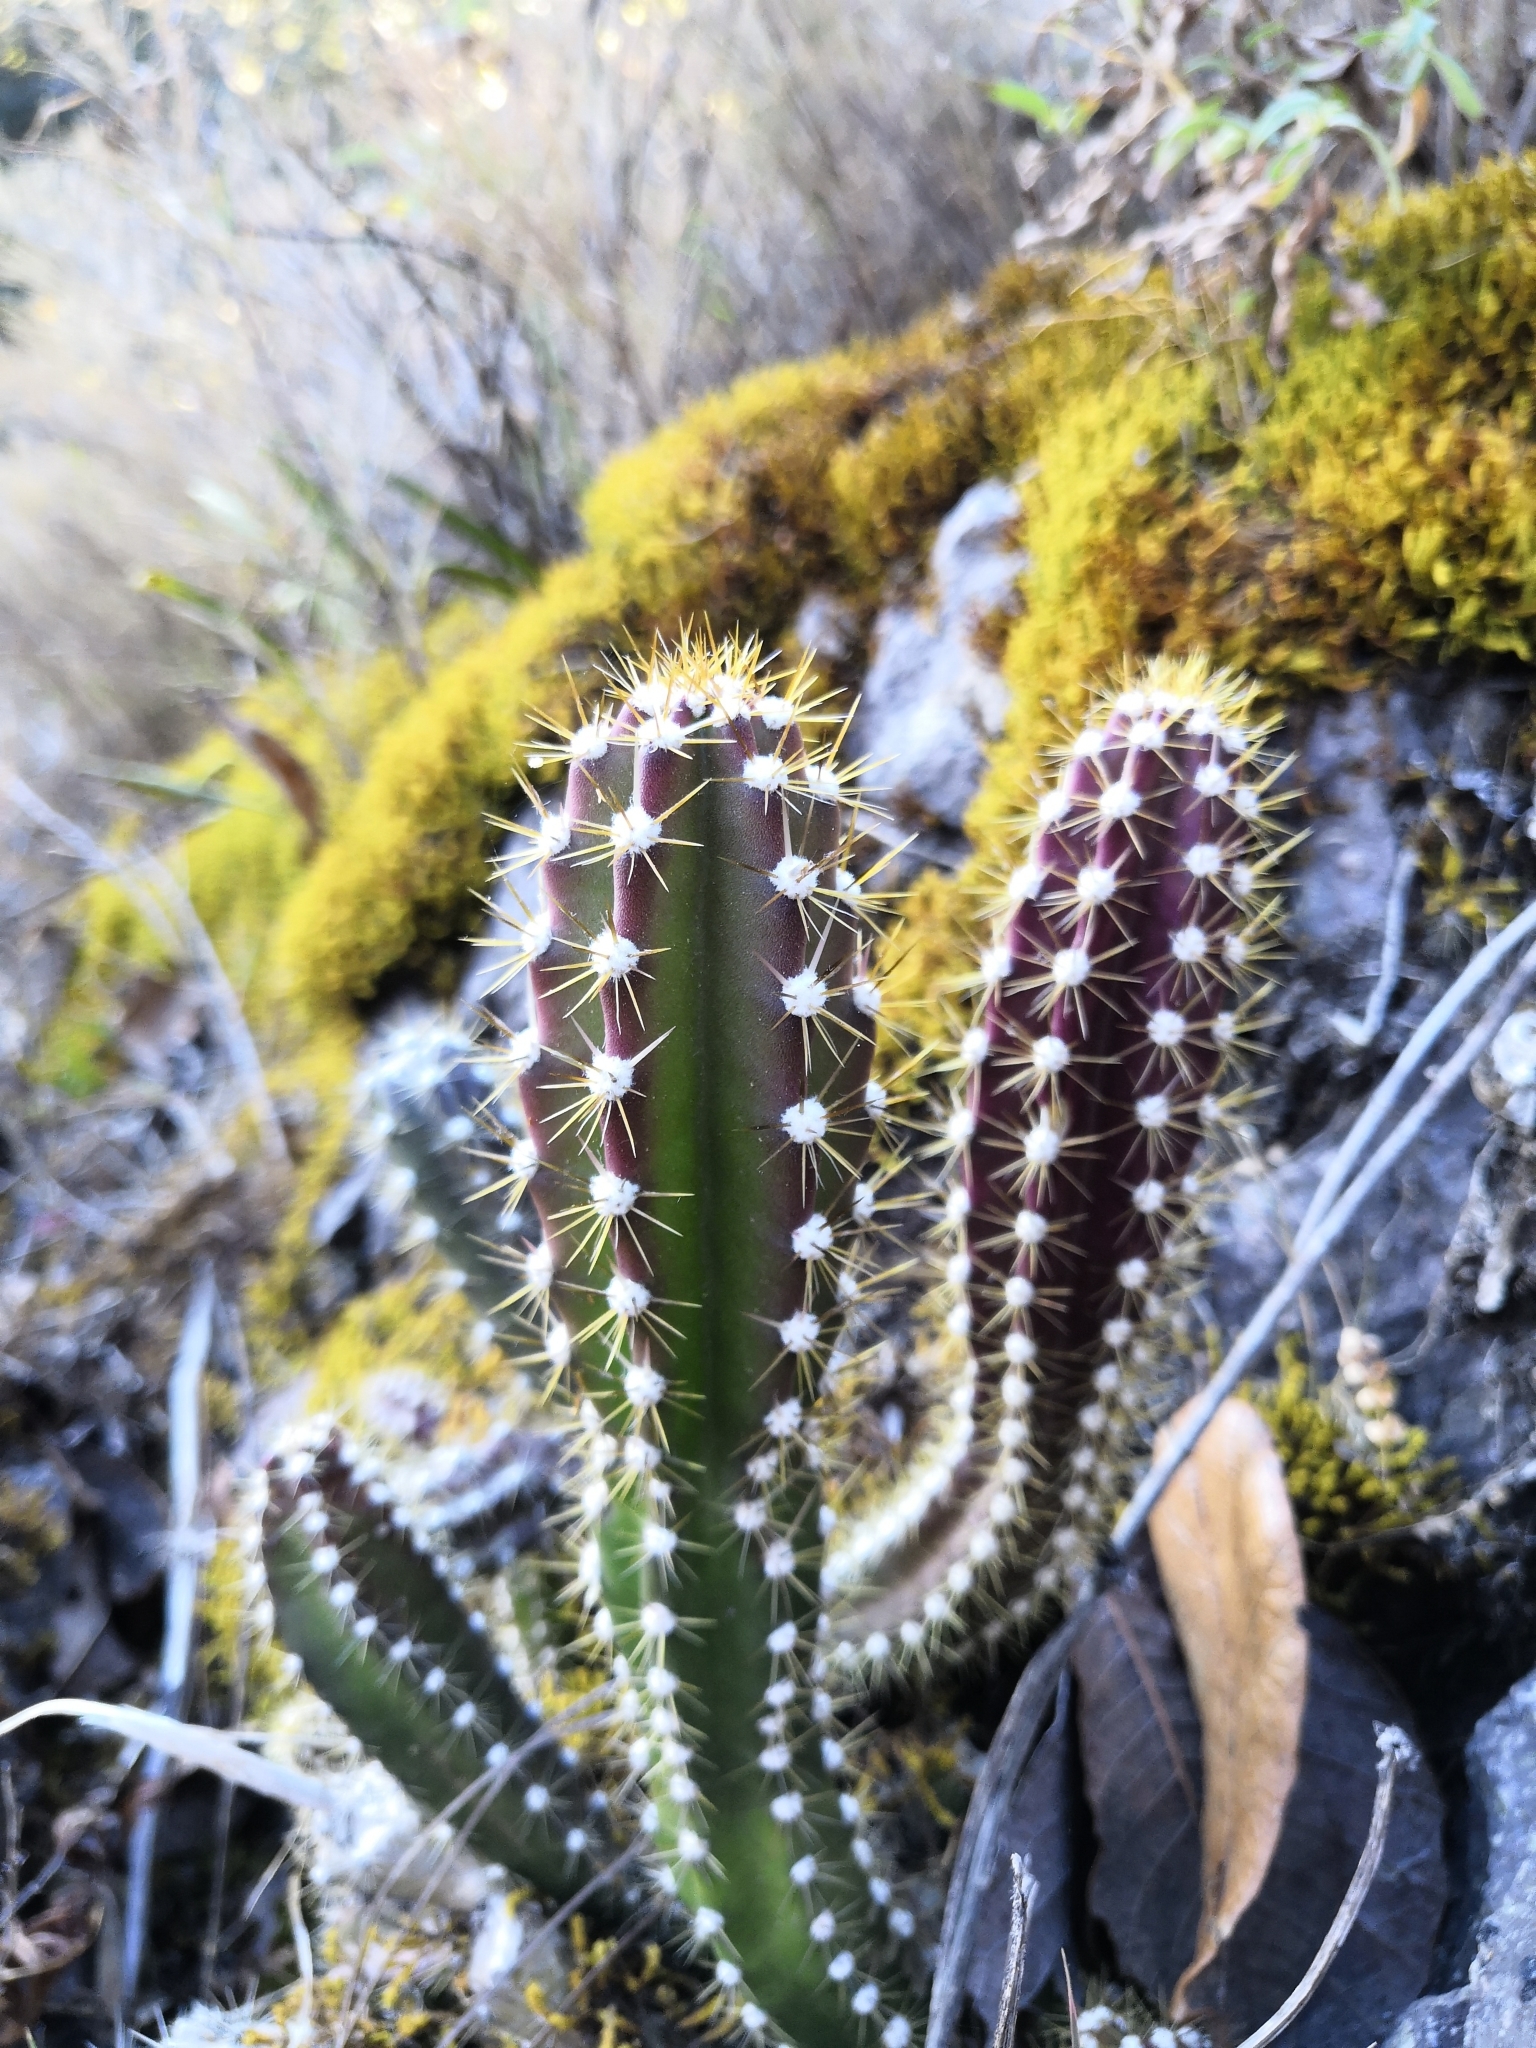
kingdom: Plantae
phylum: Tracheophyta
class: Magnoliopsida
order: Caryophyllales
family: Cactaceae
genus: Disocactus
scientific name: Disocactus speciosus
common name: Sun cereus
